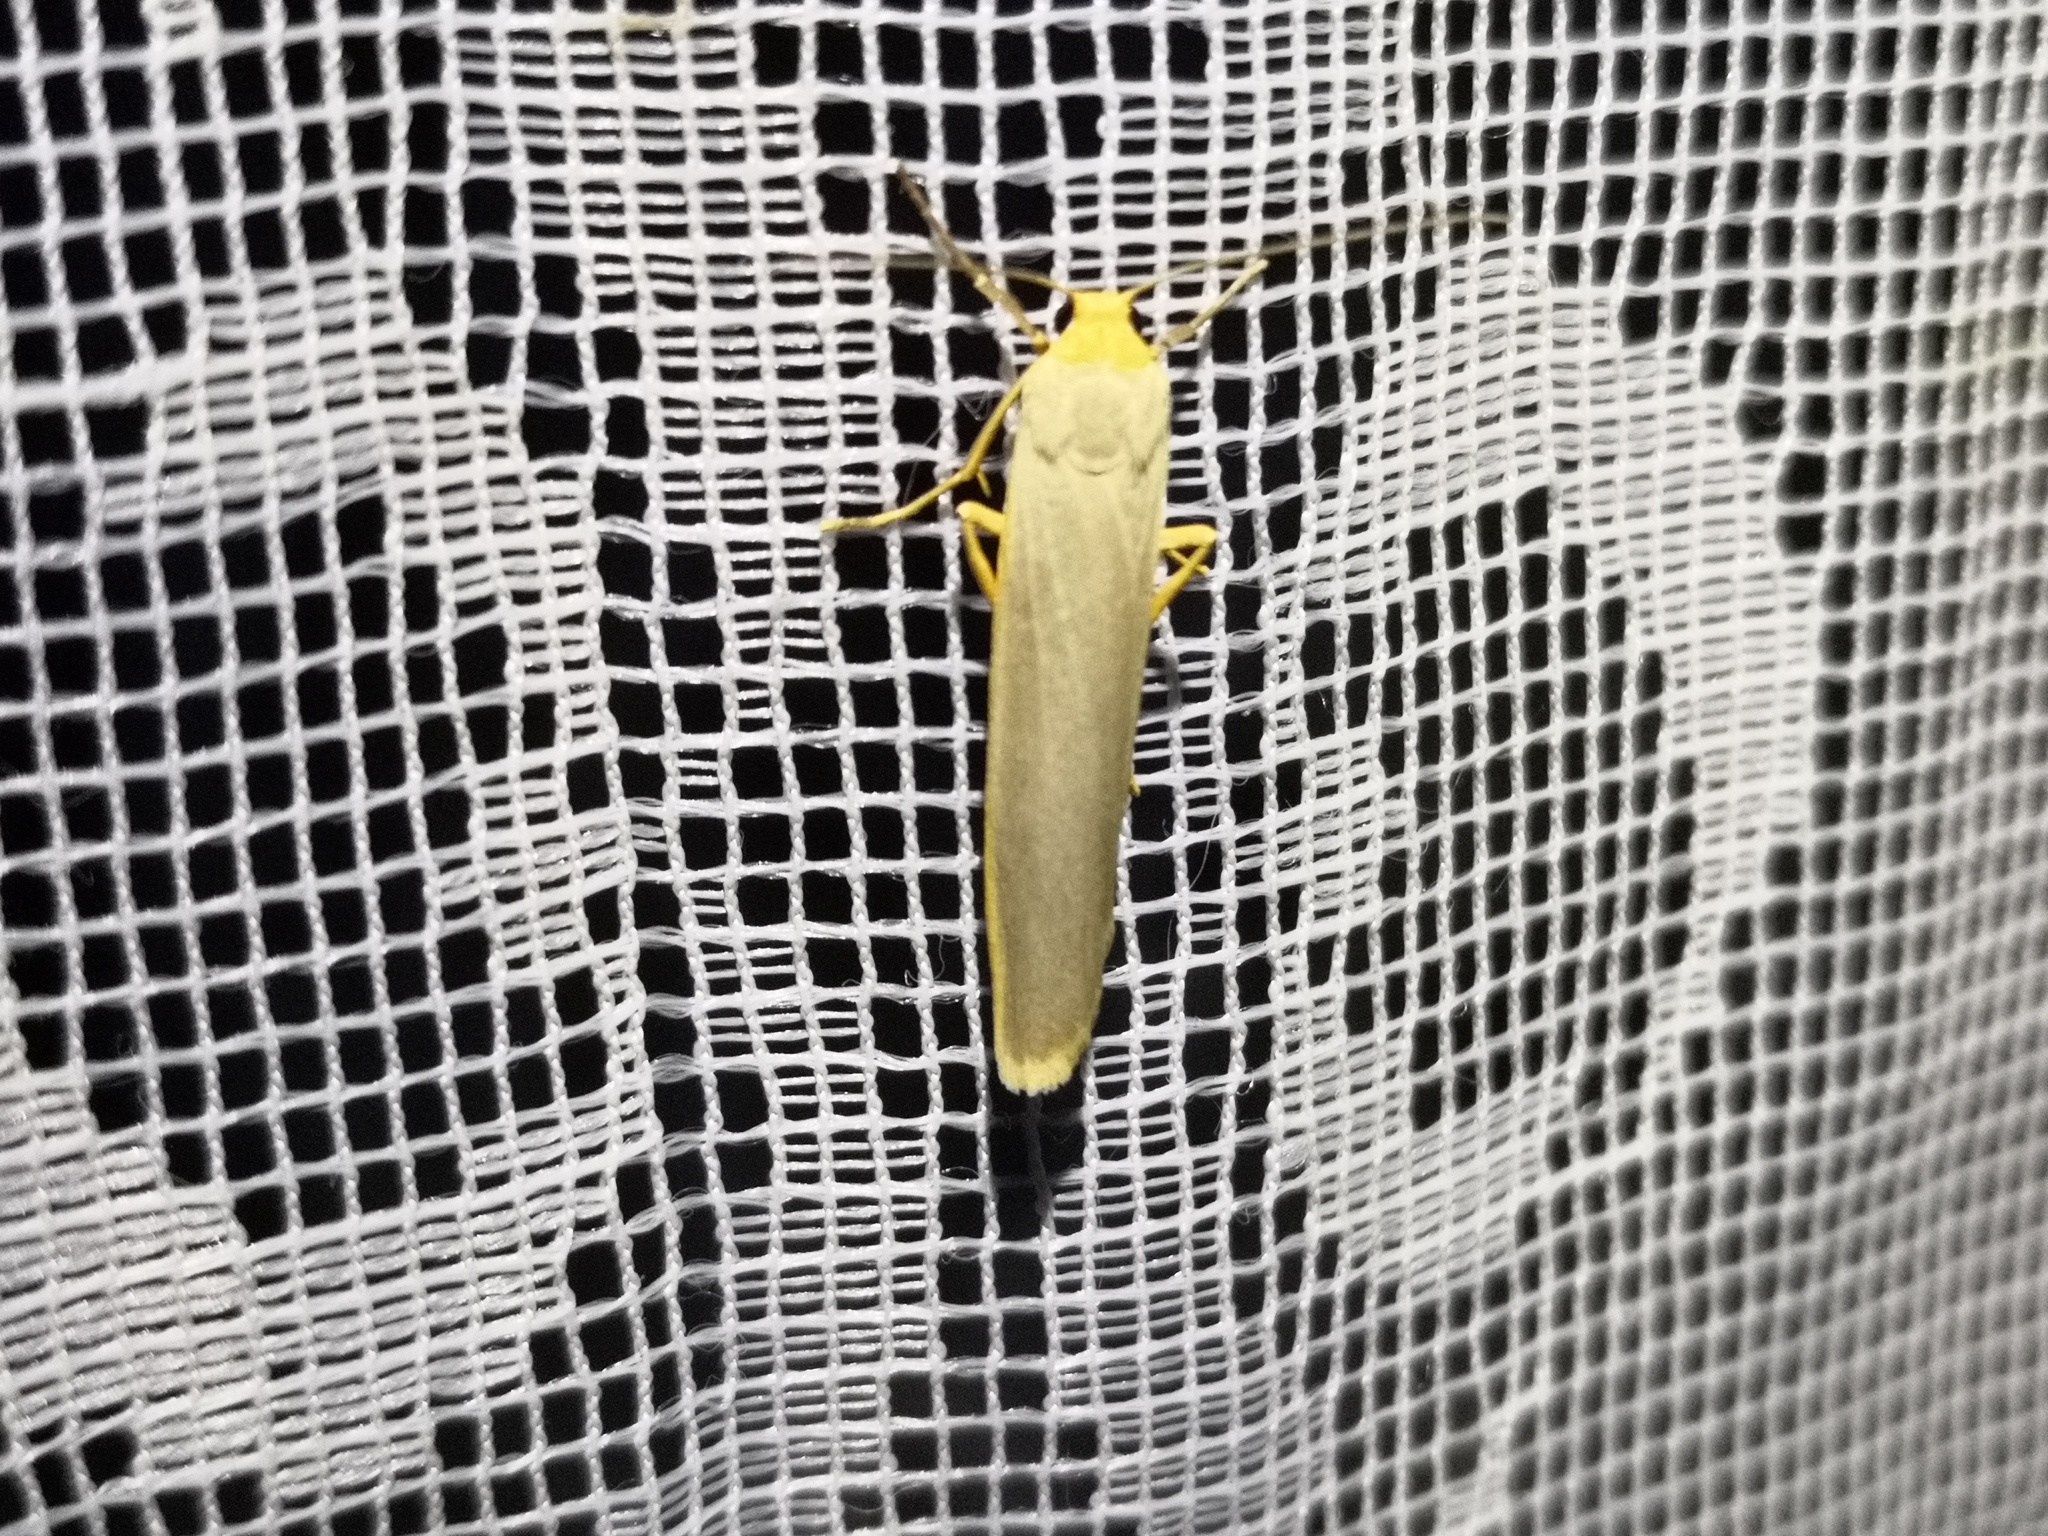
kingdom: Animalia
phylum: Arthropoda
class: Insecta
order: Lepidoptera
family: Erebidae
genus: Manulea
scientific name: Manulea complana
